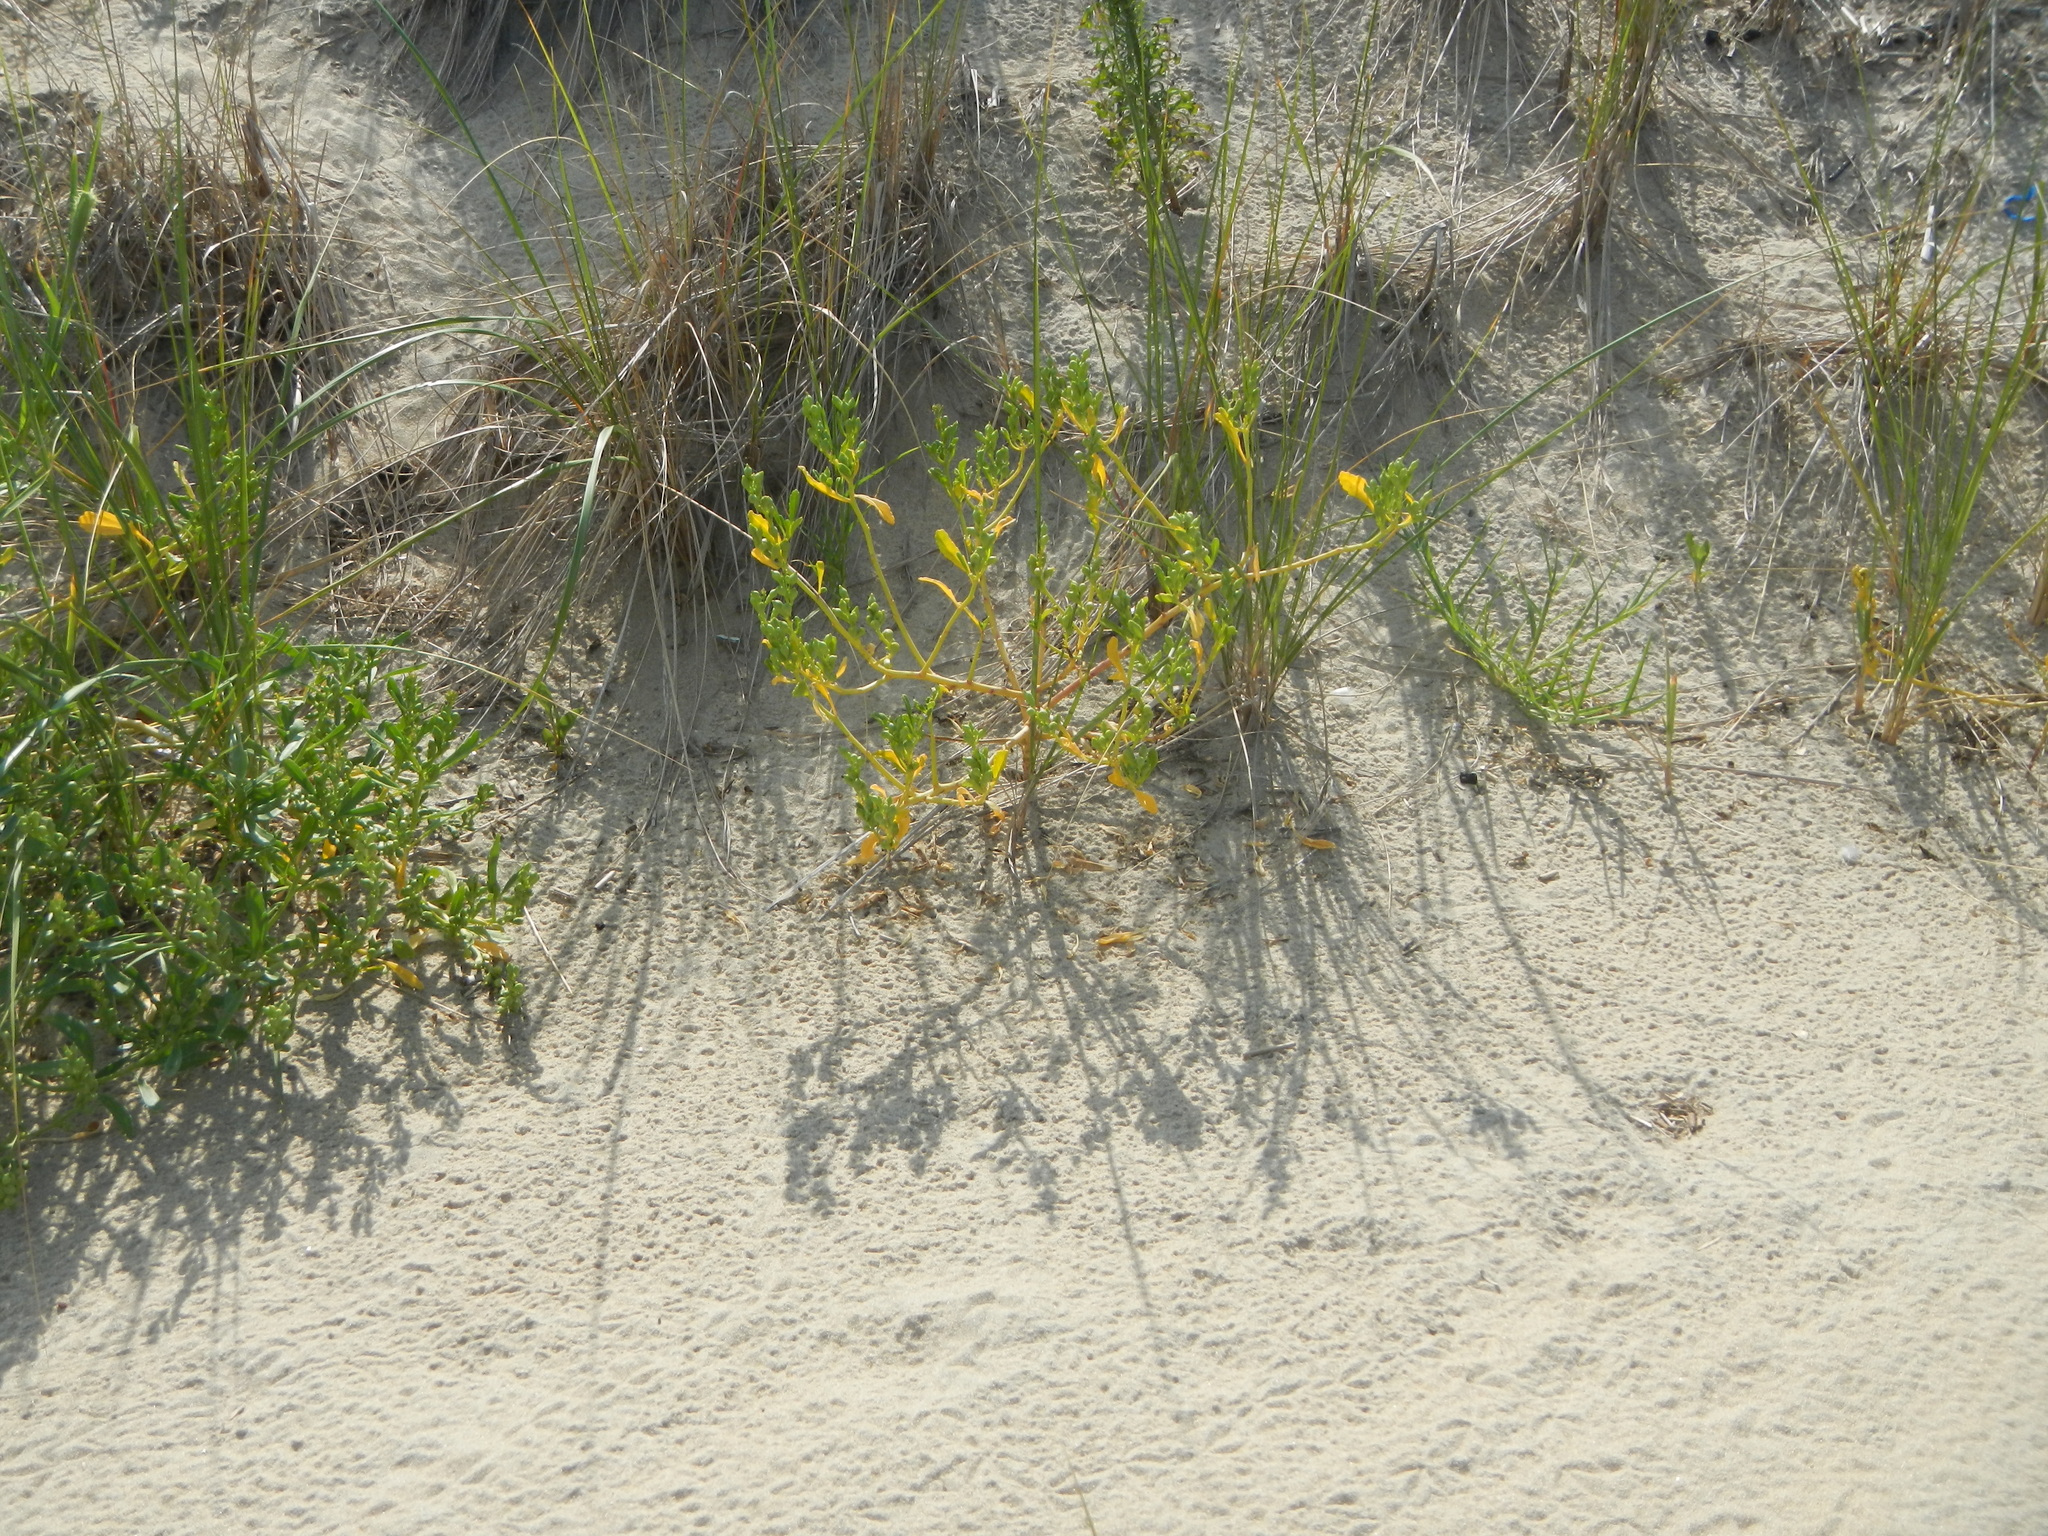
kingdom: Plantae
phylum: Tracheophyta
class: Magnoliopsida
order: Brassicales
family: Brassicaceae
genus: Cakile
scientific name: Cakile edentula
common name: American sea rocket
